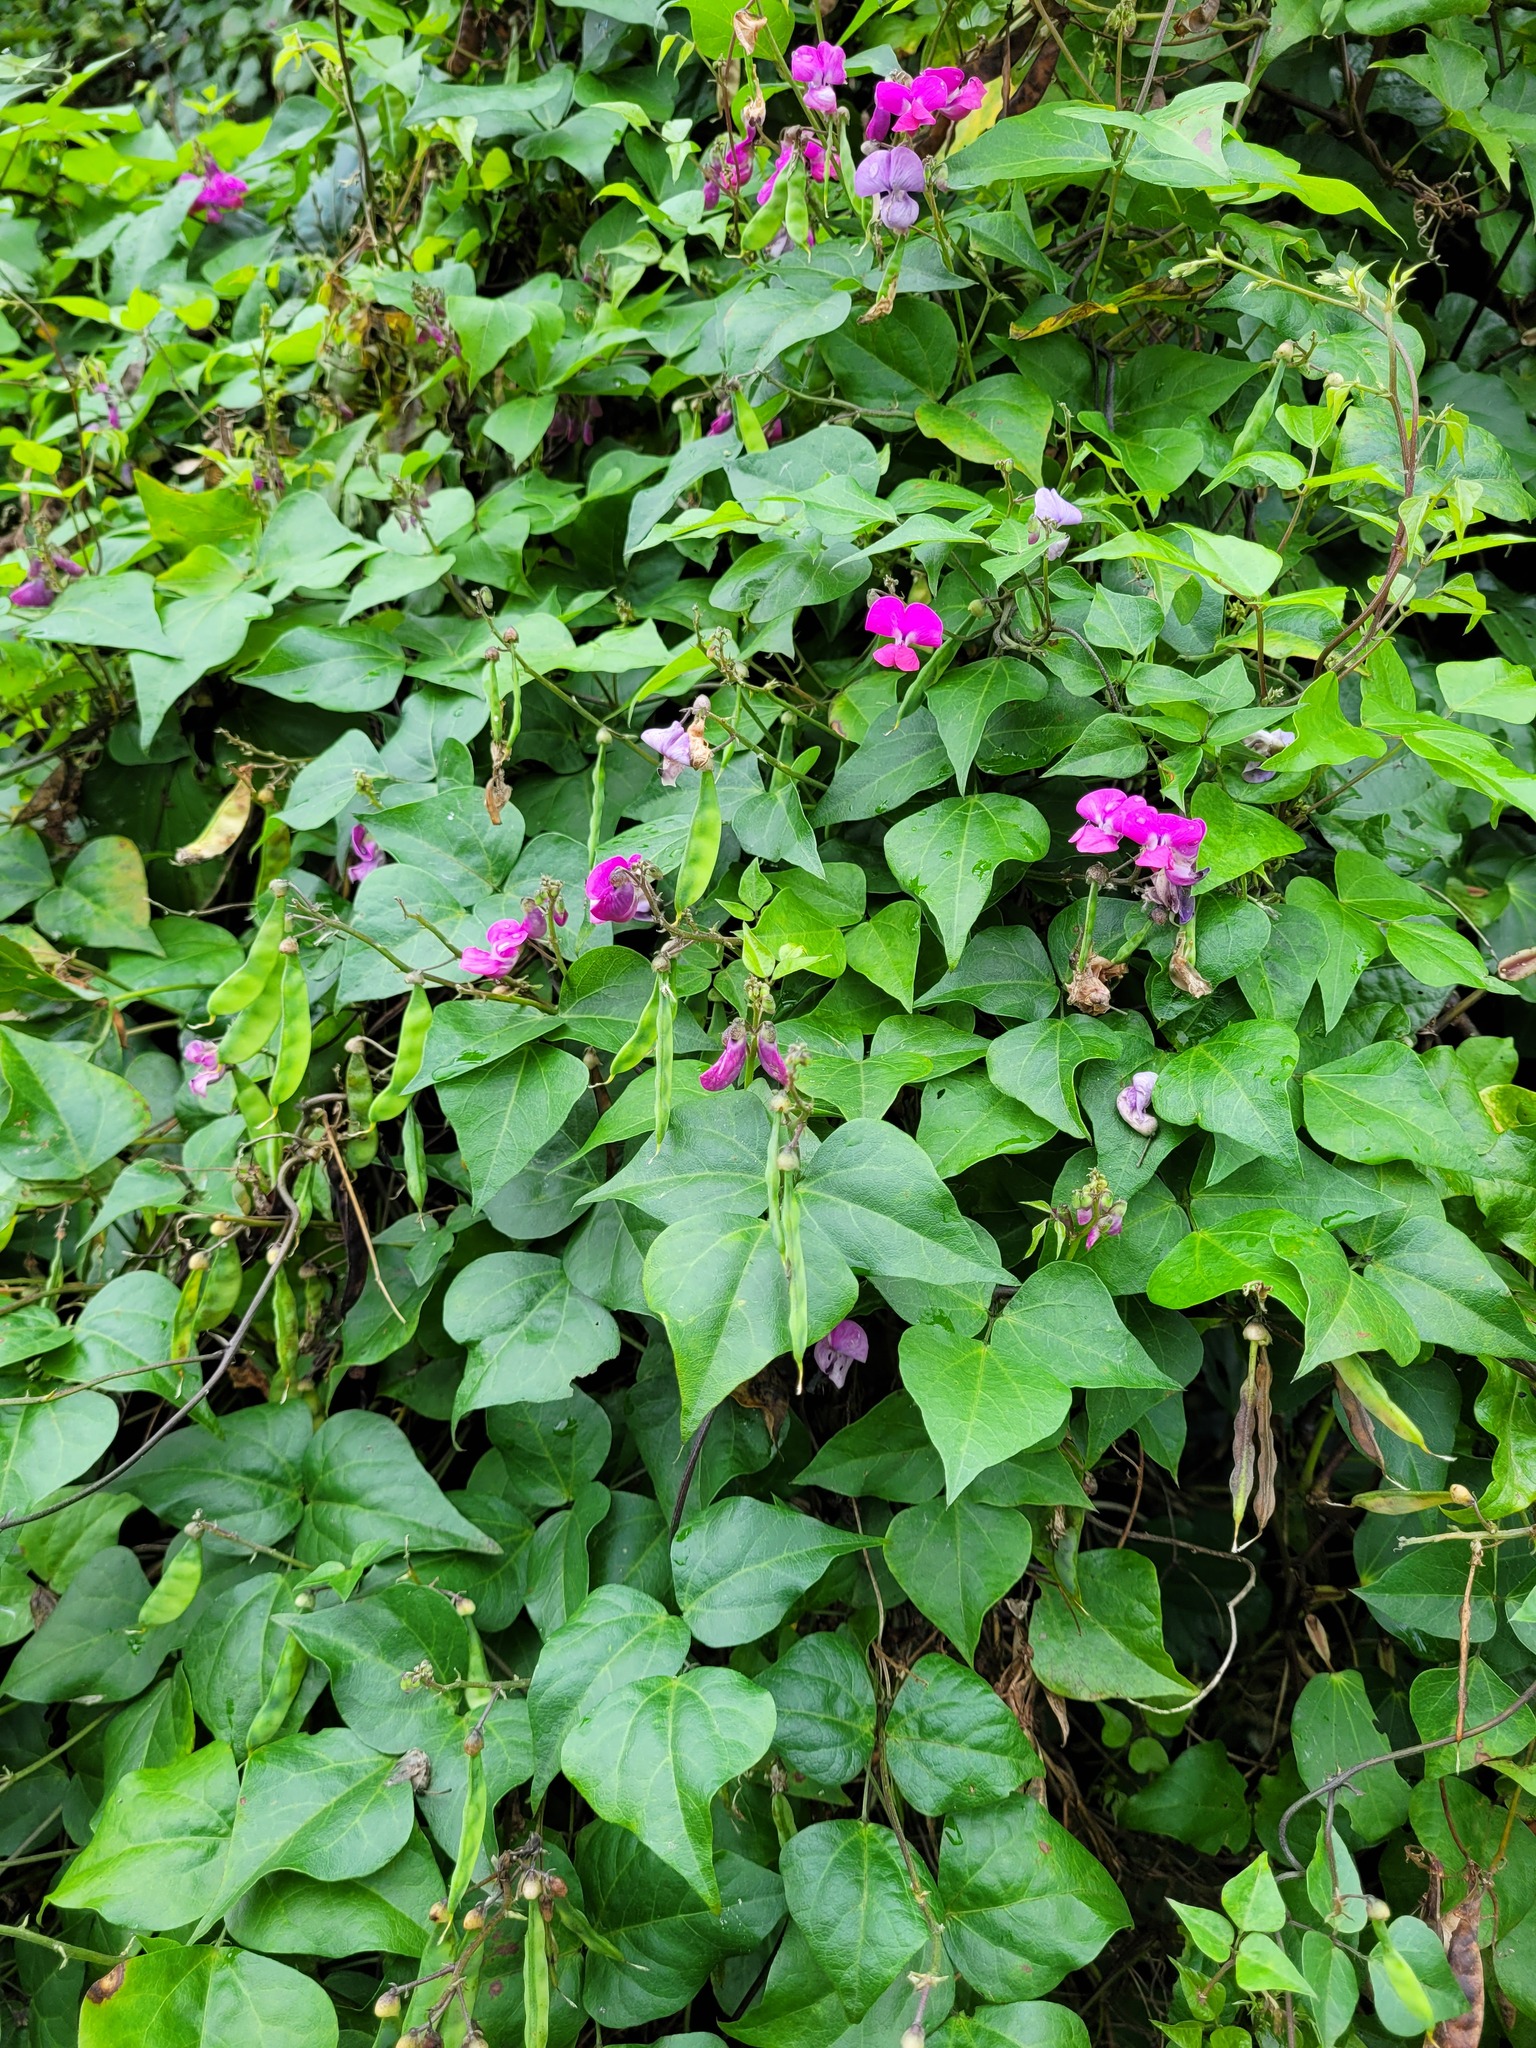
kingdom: Plantae
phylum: Tracheophyta
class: Magnoliopsida
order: Fabales
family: Fabaceae
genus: Dipogon
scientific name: Dipogon lignosus
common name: Okie bean
